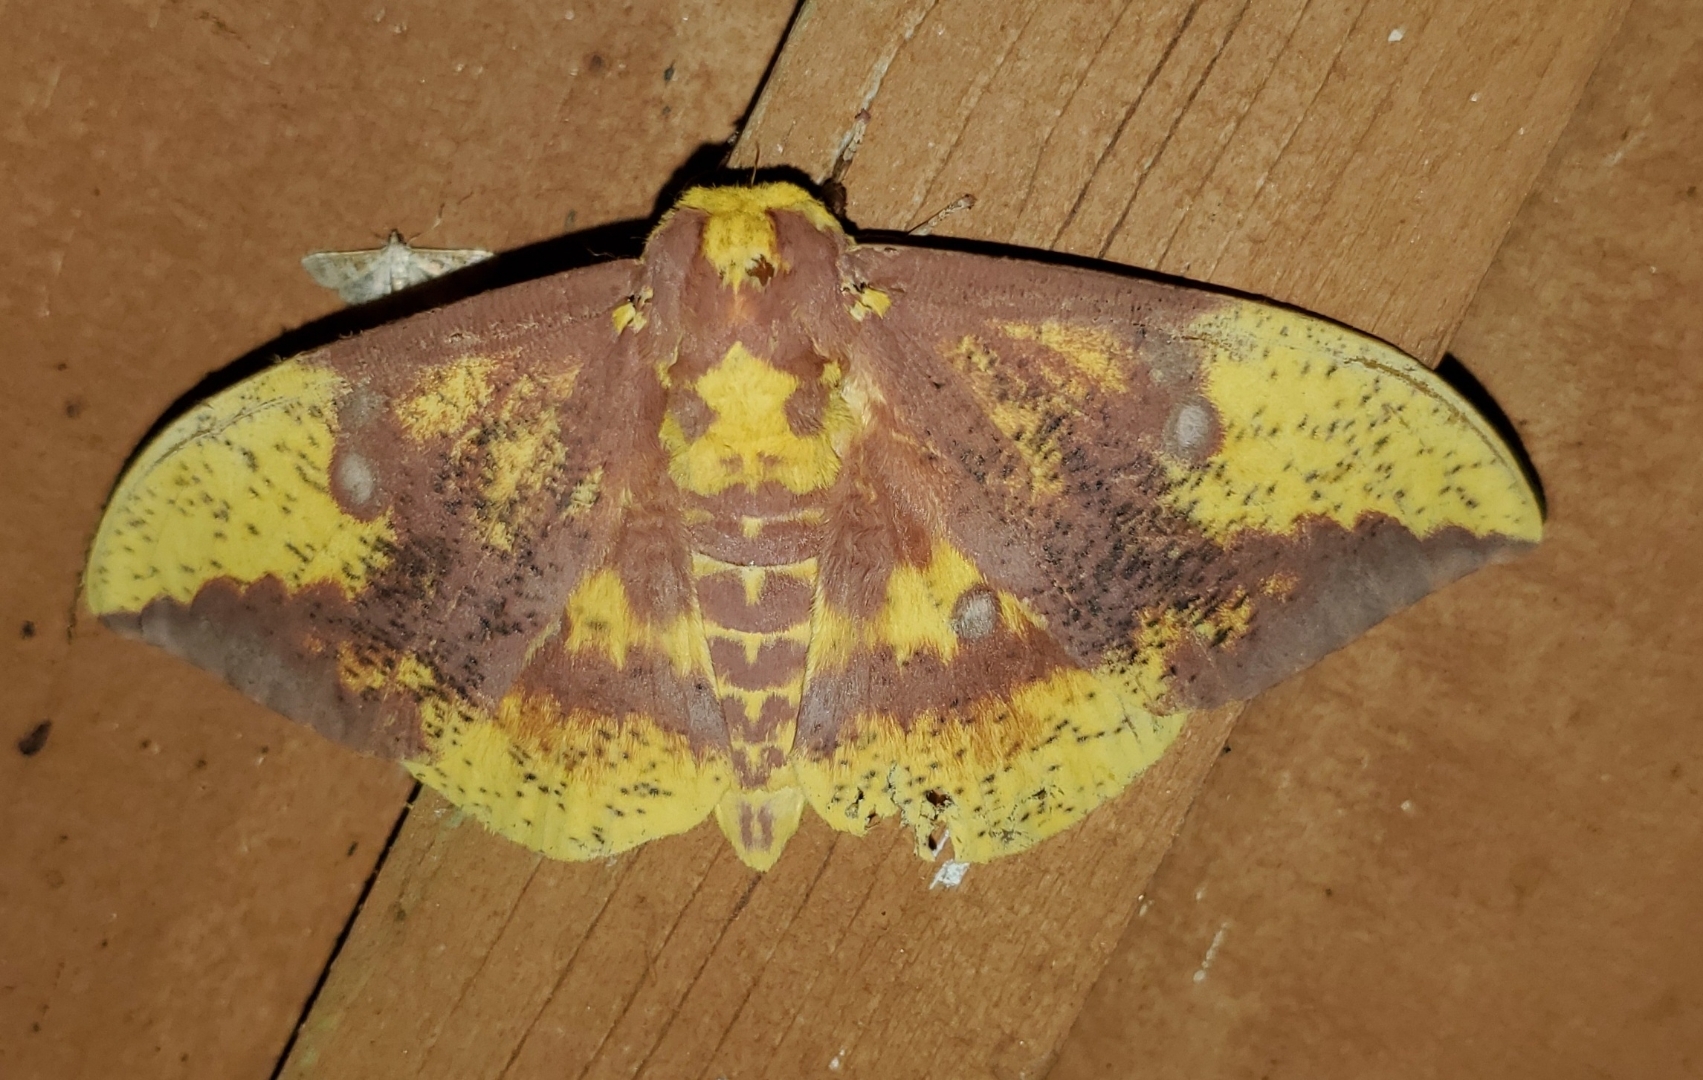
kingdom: Animalia
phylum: Arthropoda
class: Insecta
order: Lepidoptera
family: Saturniidae
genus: Eacles
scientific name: Eacles imperialis
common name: Imperial moth
